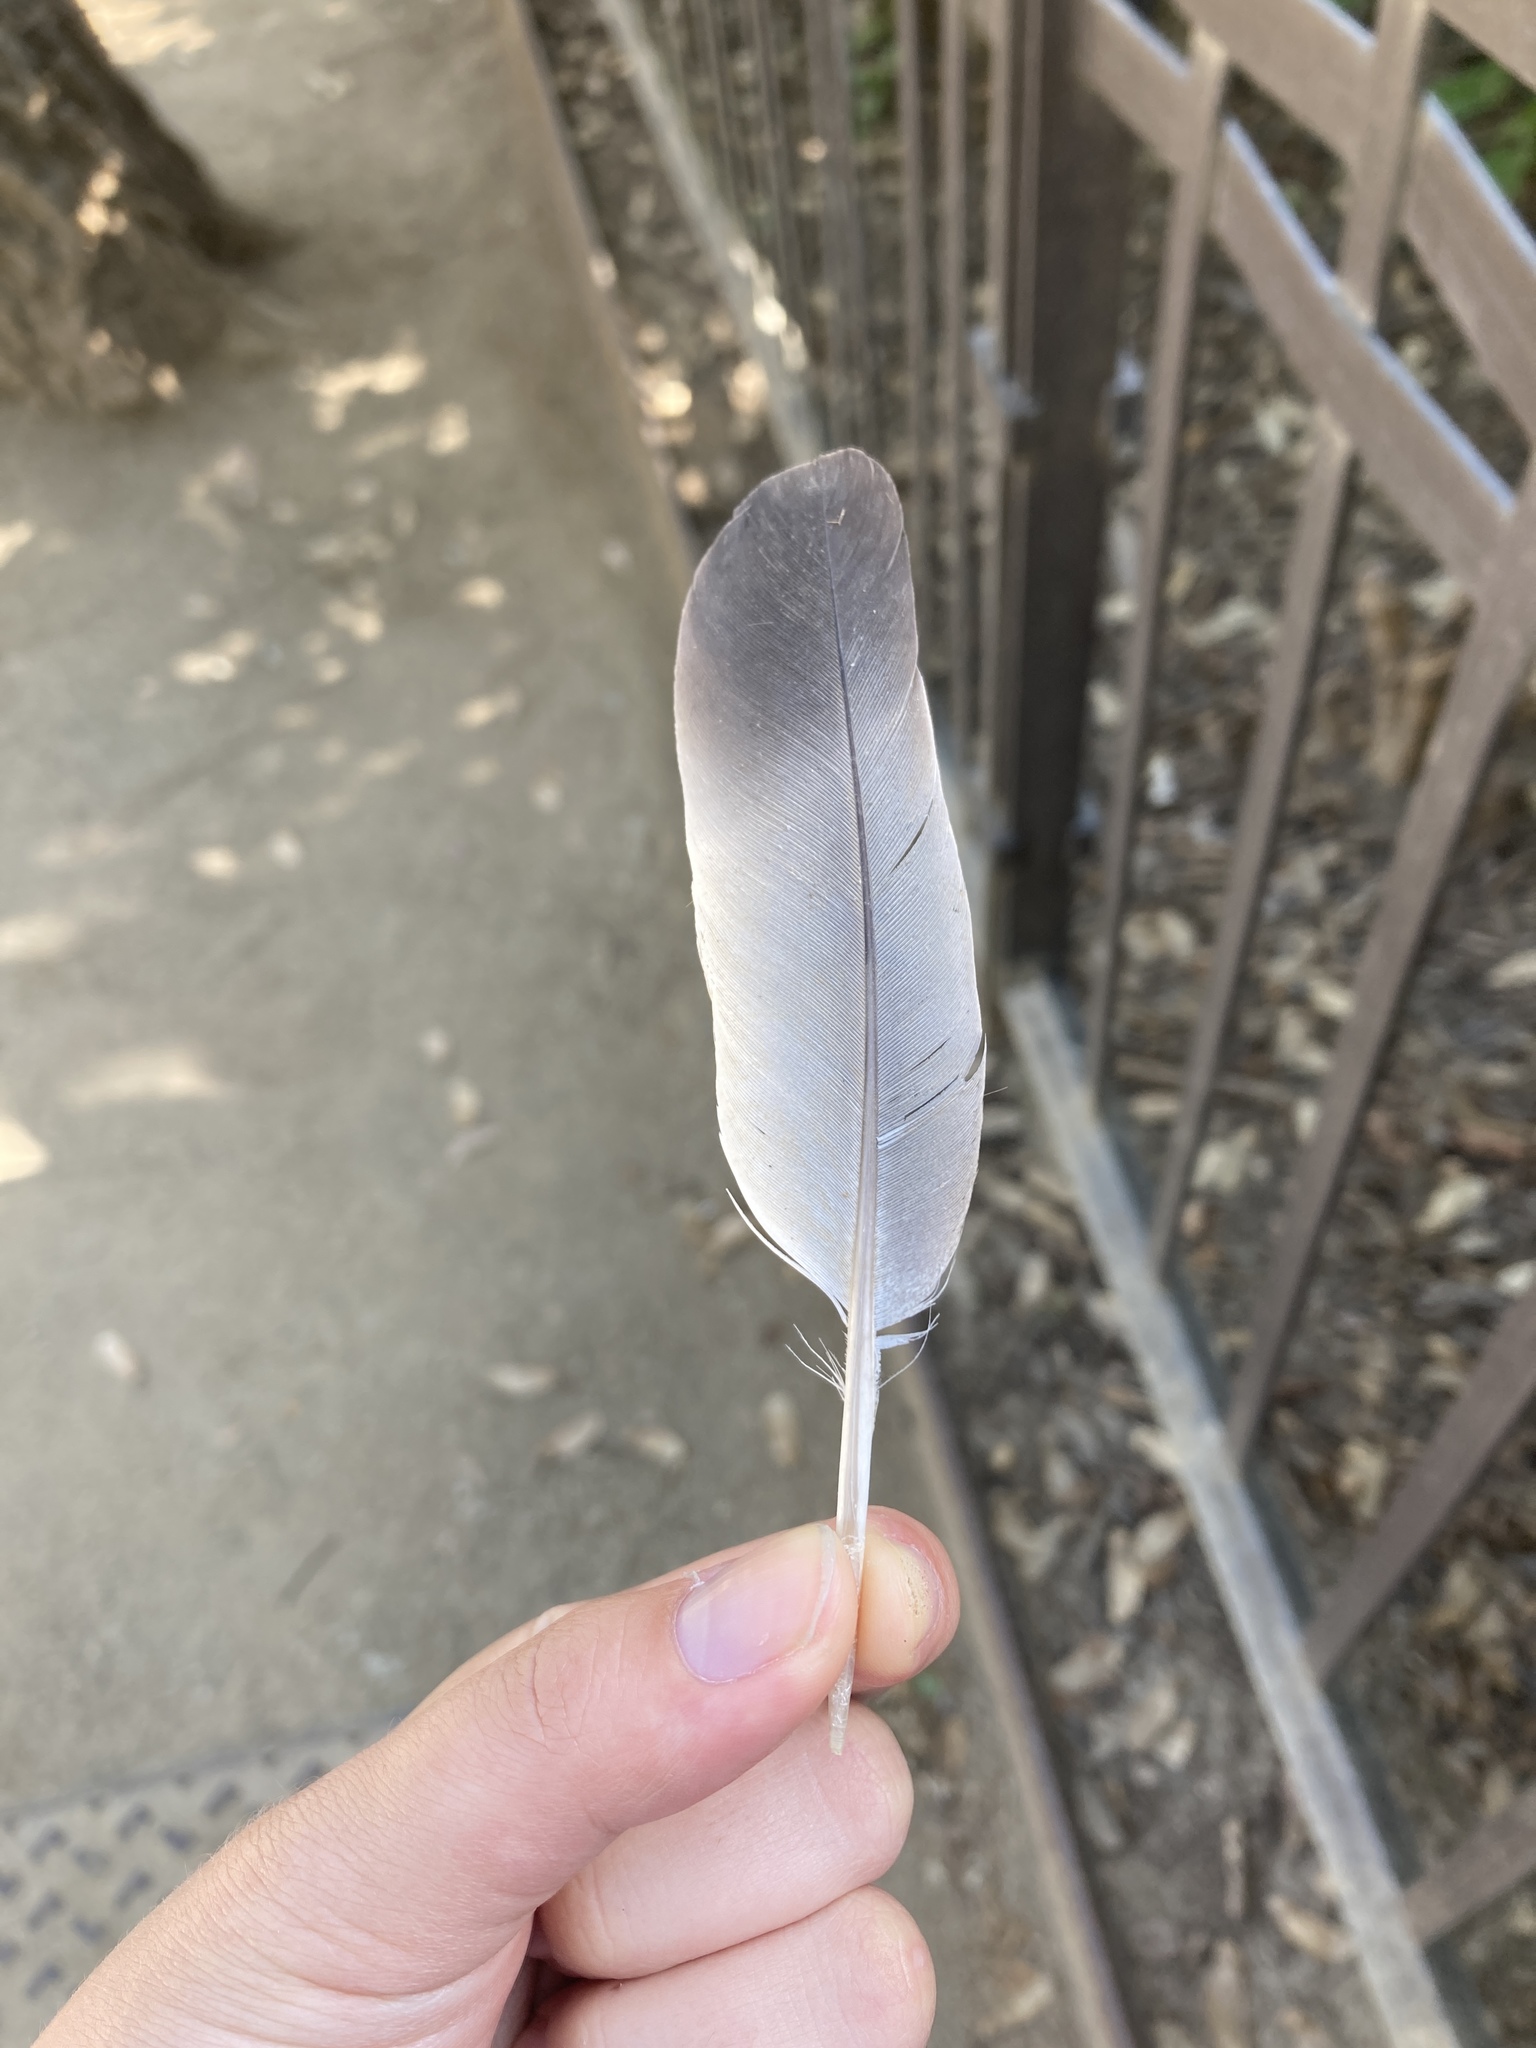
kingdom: Animalia
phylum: Chordata
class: Aves
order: Columbiformes
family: Columbidae
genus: Columba
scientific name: Columba livia
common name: Rock pigeon
